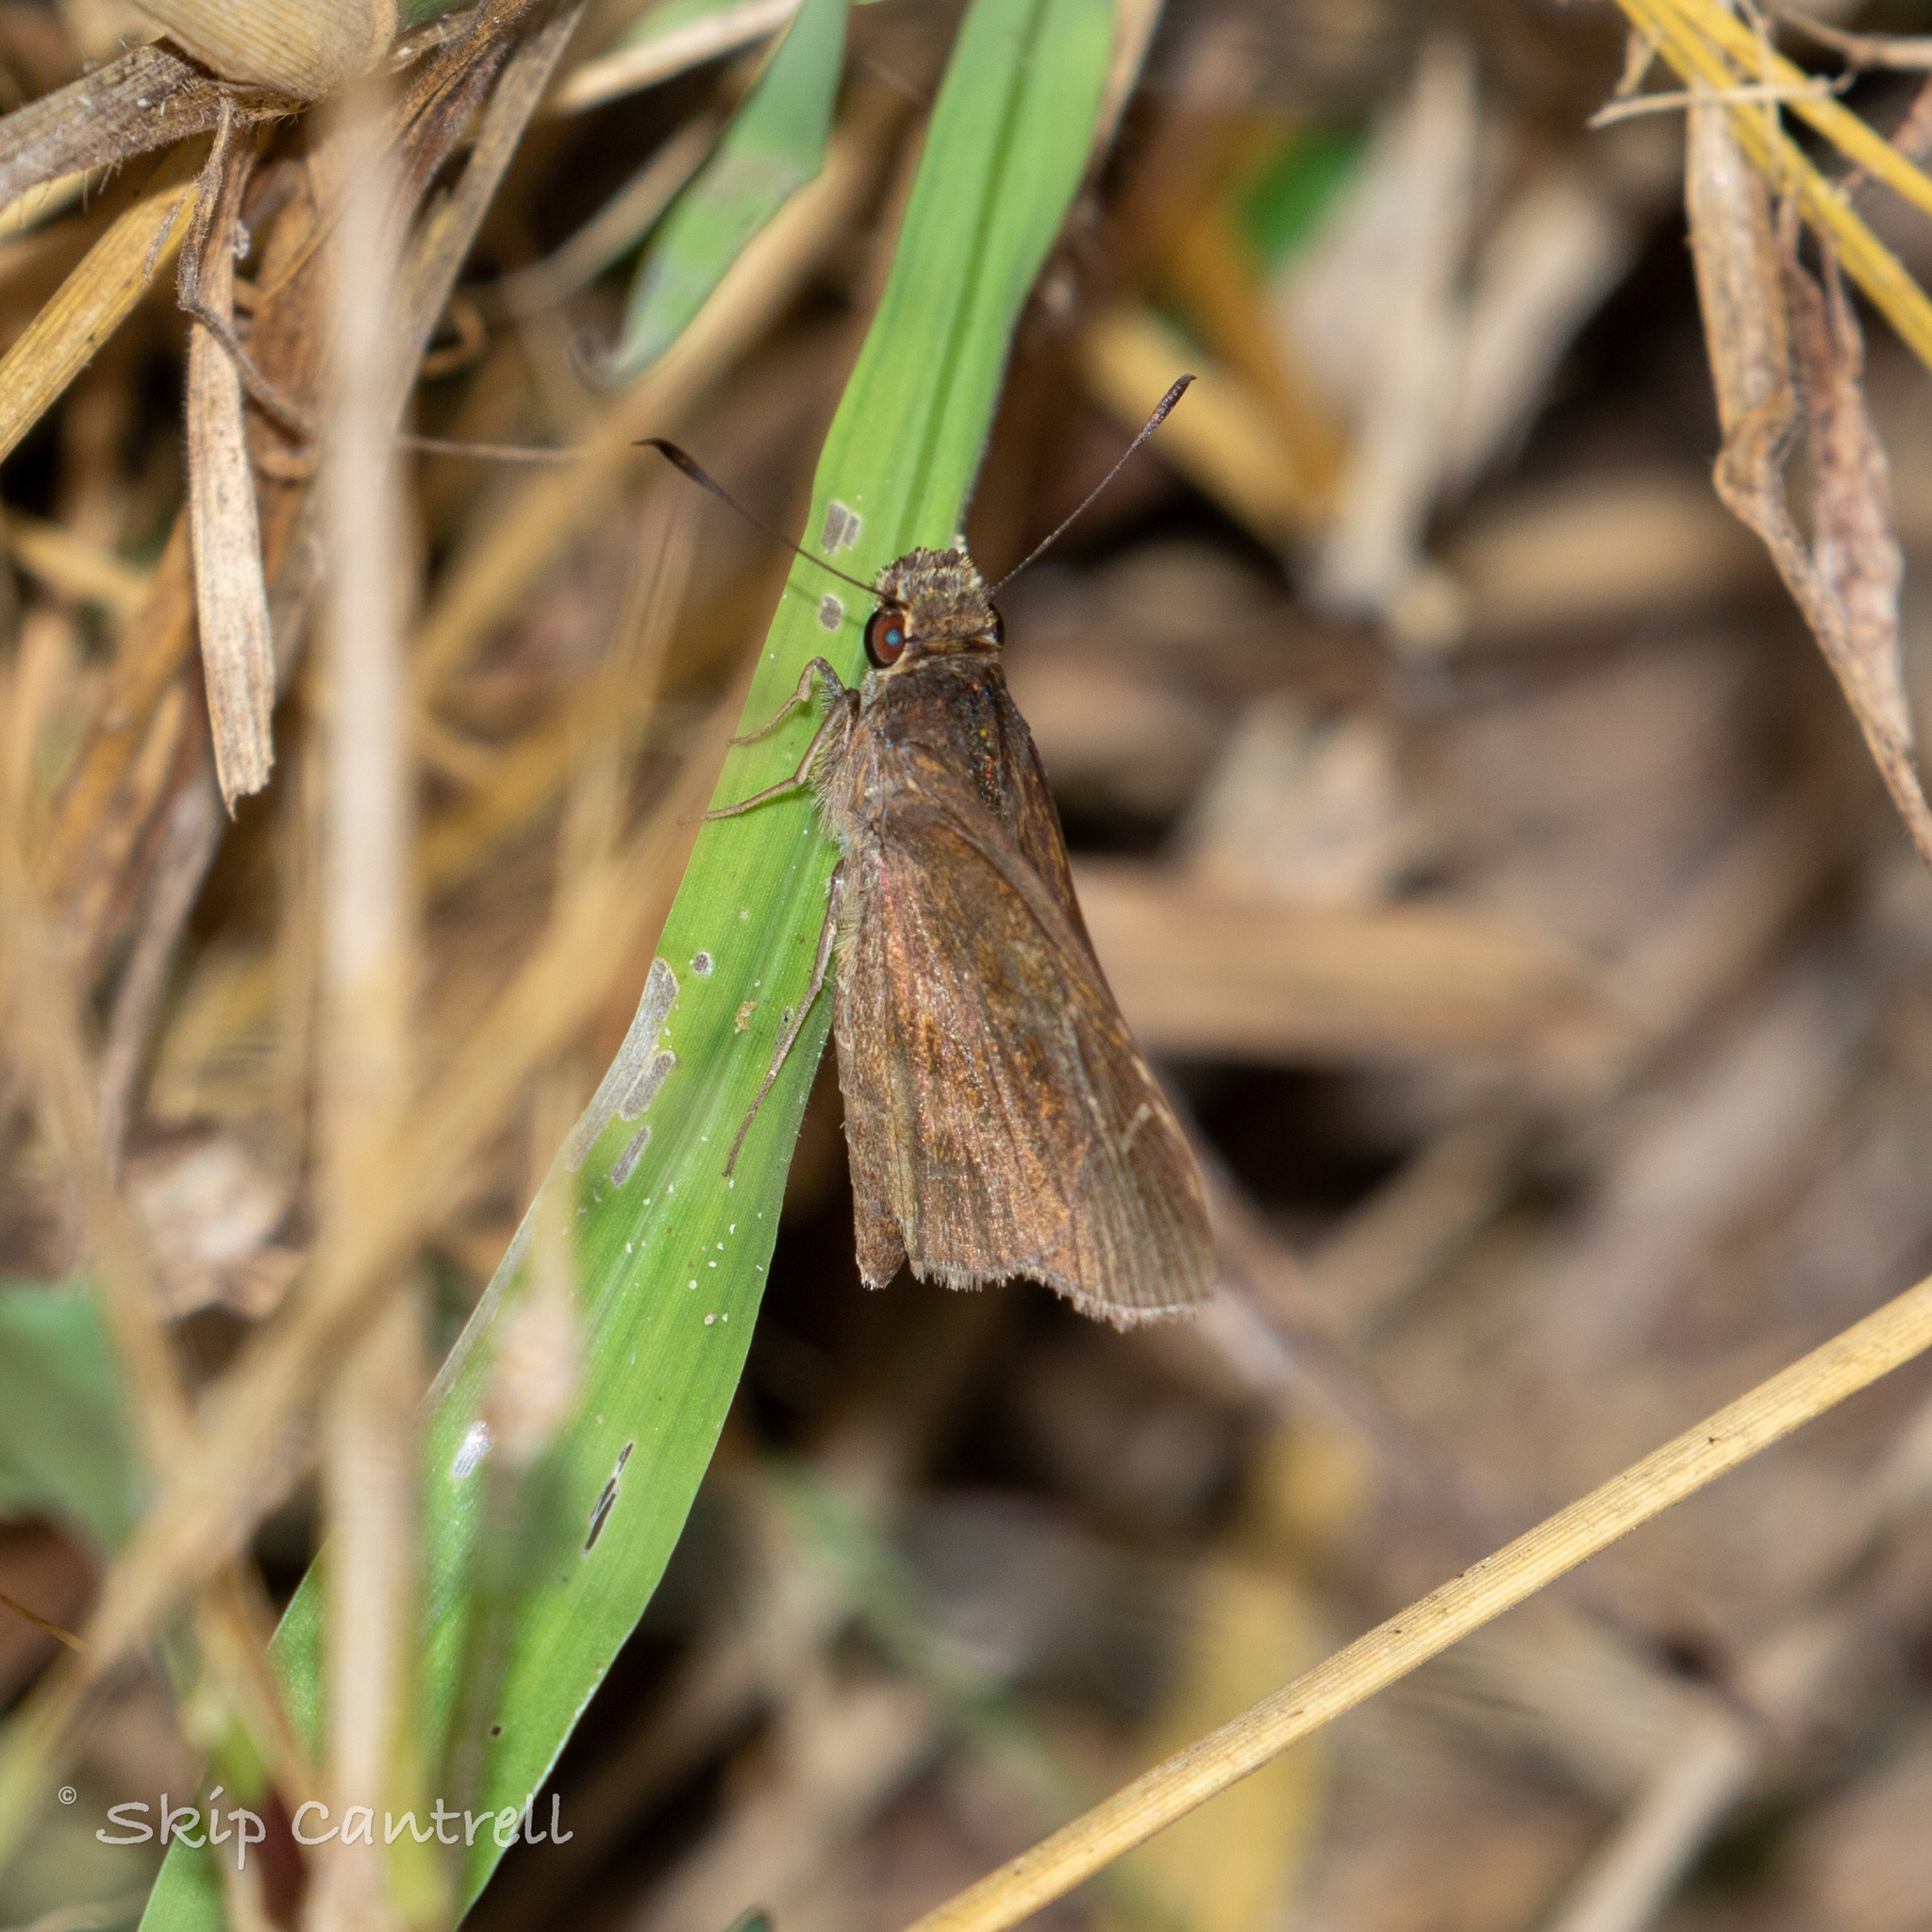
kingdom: Animalia
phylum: Arthropoda
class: Insecta
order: Lepidoptera
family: Hesperiidae
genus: Lerema
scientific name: Lerema accius
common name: Clouded skipper
